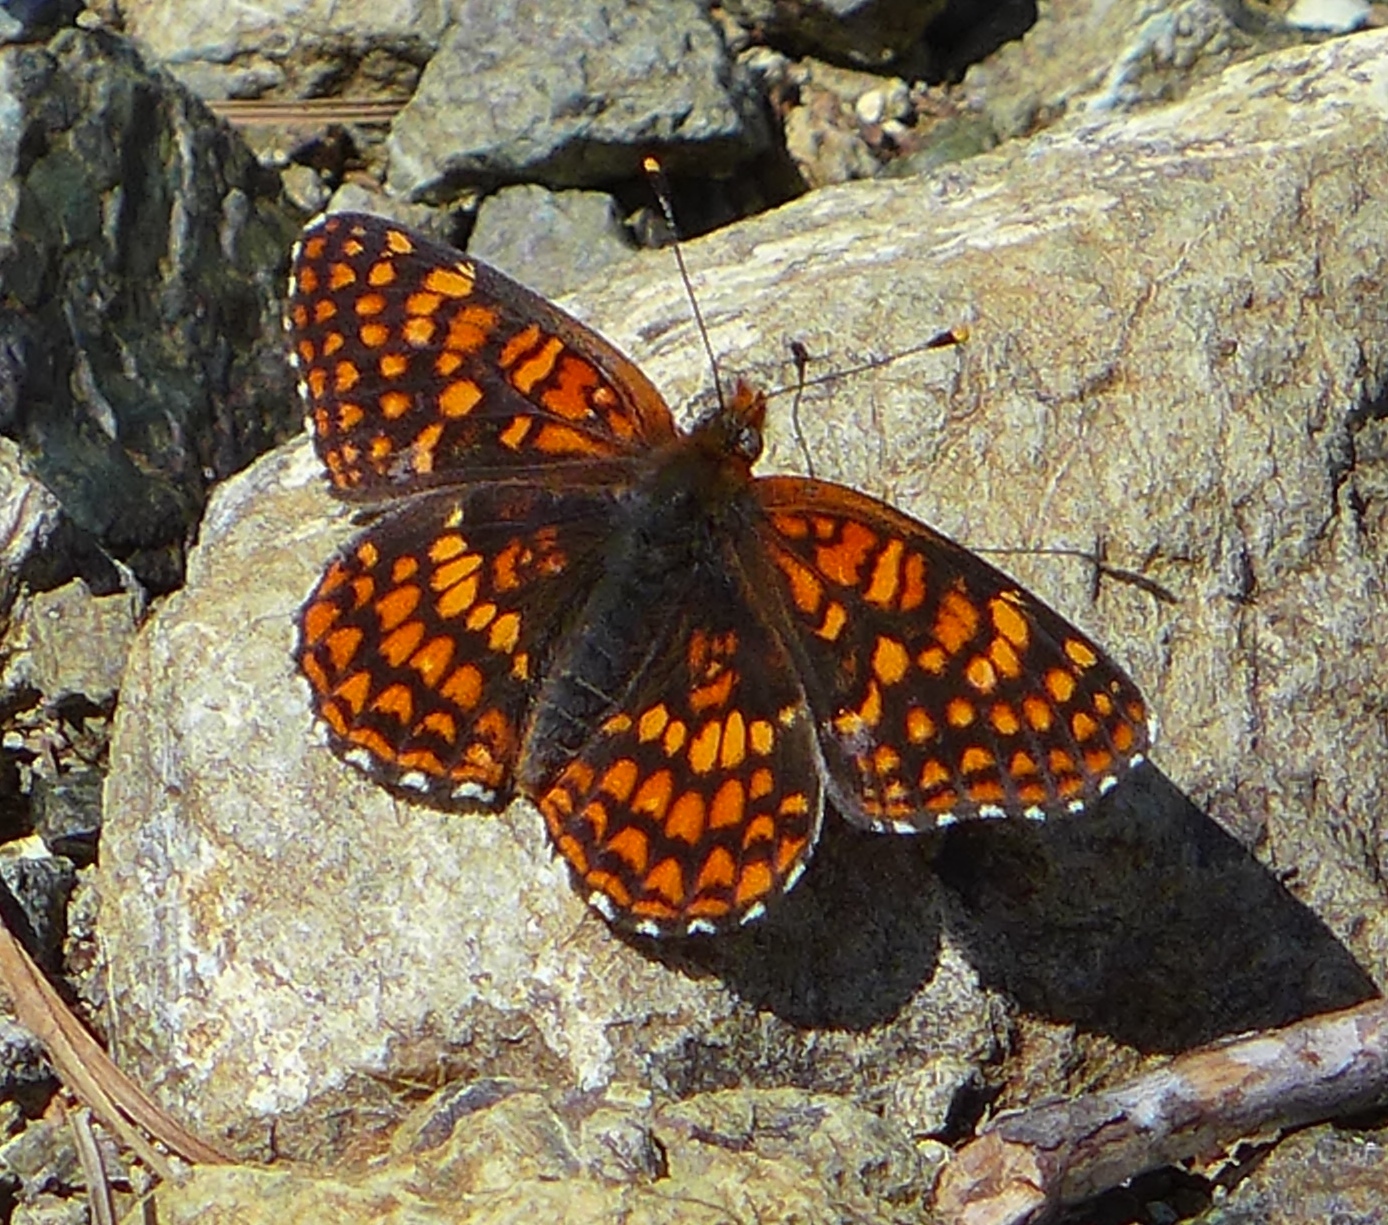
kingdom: Animalia
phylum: Arthropoda
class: Insecta
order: Lepidoptera
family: Nymphalidae
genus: Chlosyne
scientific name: Chlosyne palla
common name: Northern checkerspot
